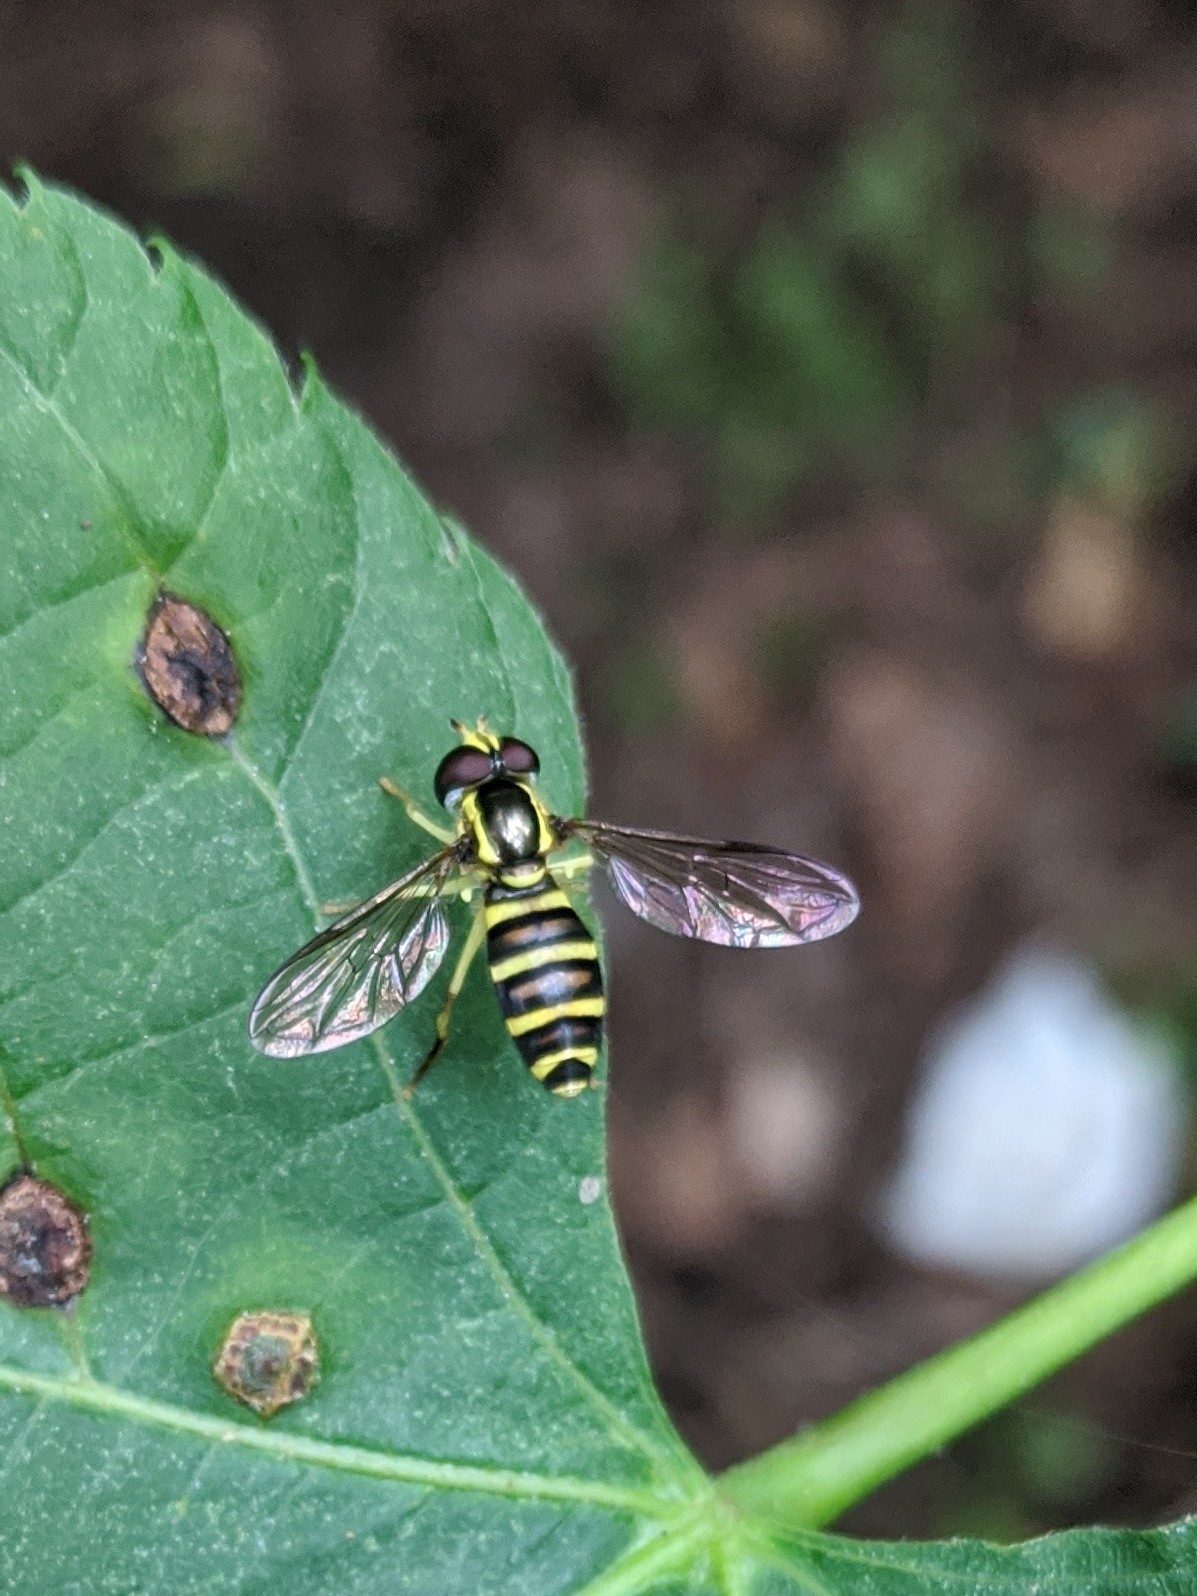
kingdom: Animalia
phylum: Arthropoda
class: Insecta
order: Diptera
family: Syrphidae
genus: Philhelius
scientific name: Philhelius flavipes
